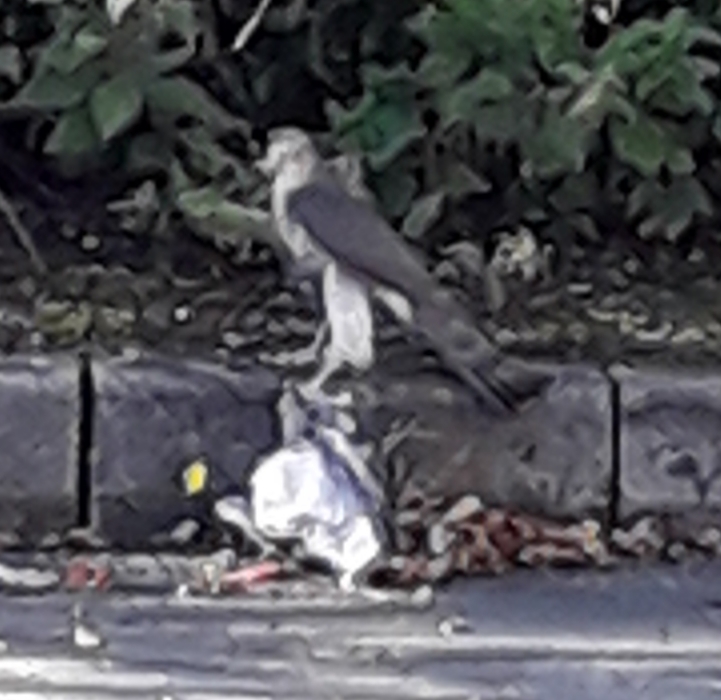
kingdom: Animalia
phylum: Chordata
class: Aves
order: Accipitriformes
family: Accipitridae
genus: Accipiter
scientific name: Accipiter nisus
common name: Eurasian sparrowhawk
